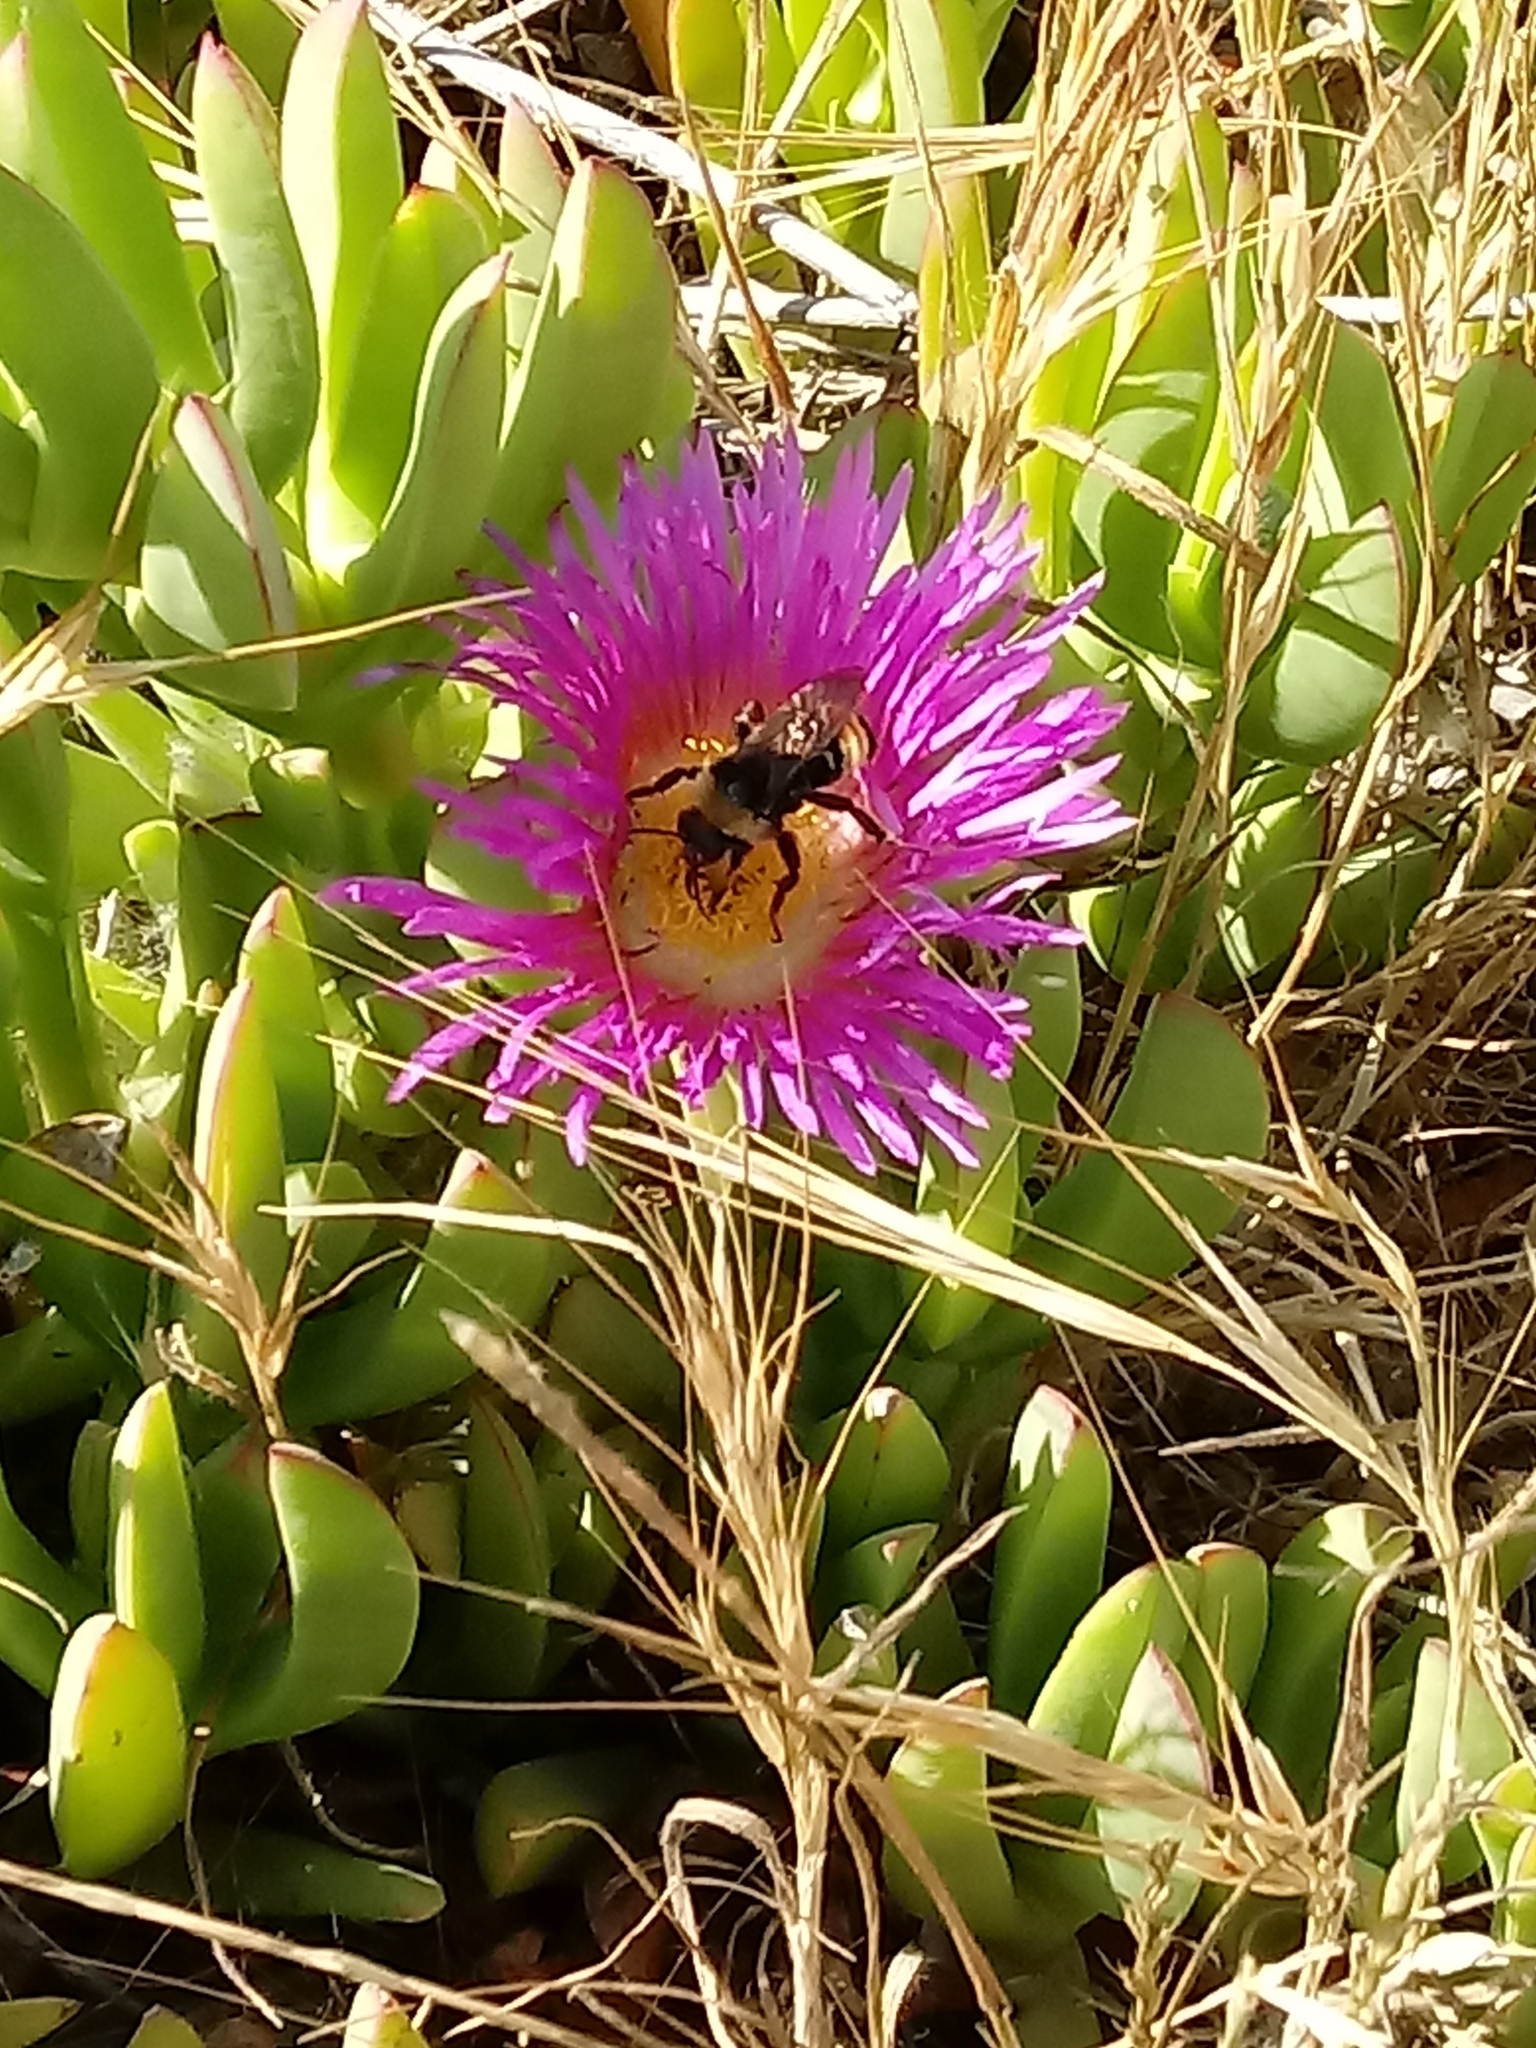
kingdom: Animalia
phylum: Arthropoda
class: Insecta
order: Hymenoptera
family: Apidae
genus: Bombus
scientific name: Bombus californicus
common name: California bumble bee
